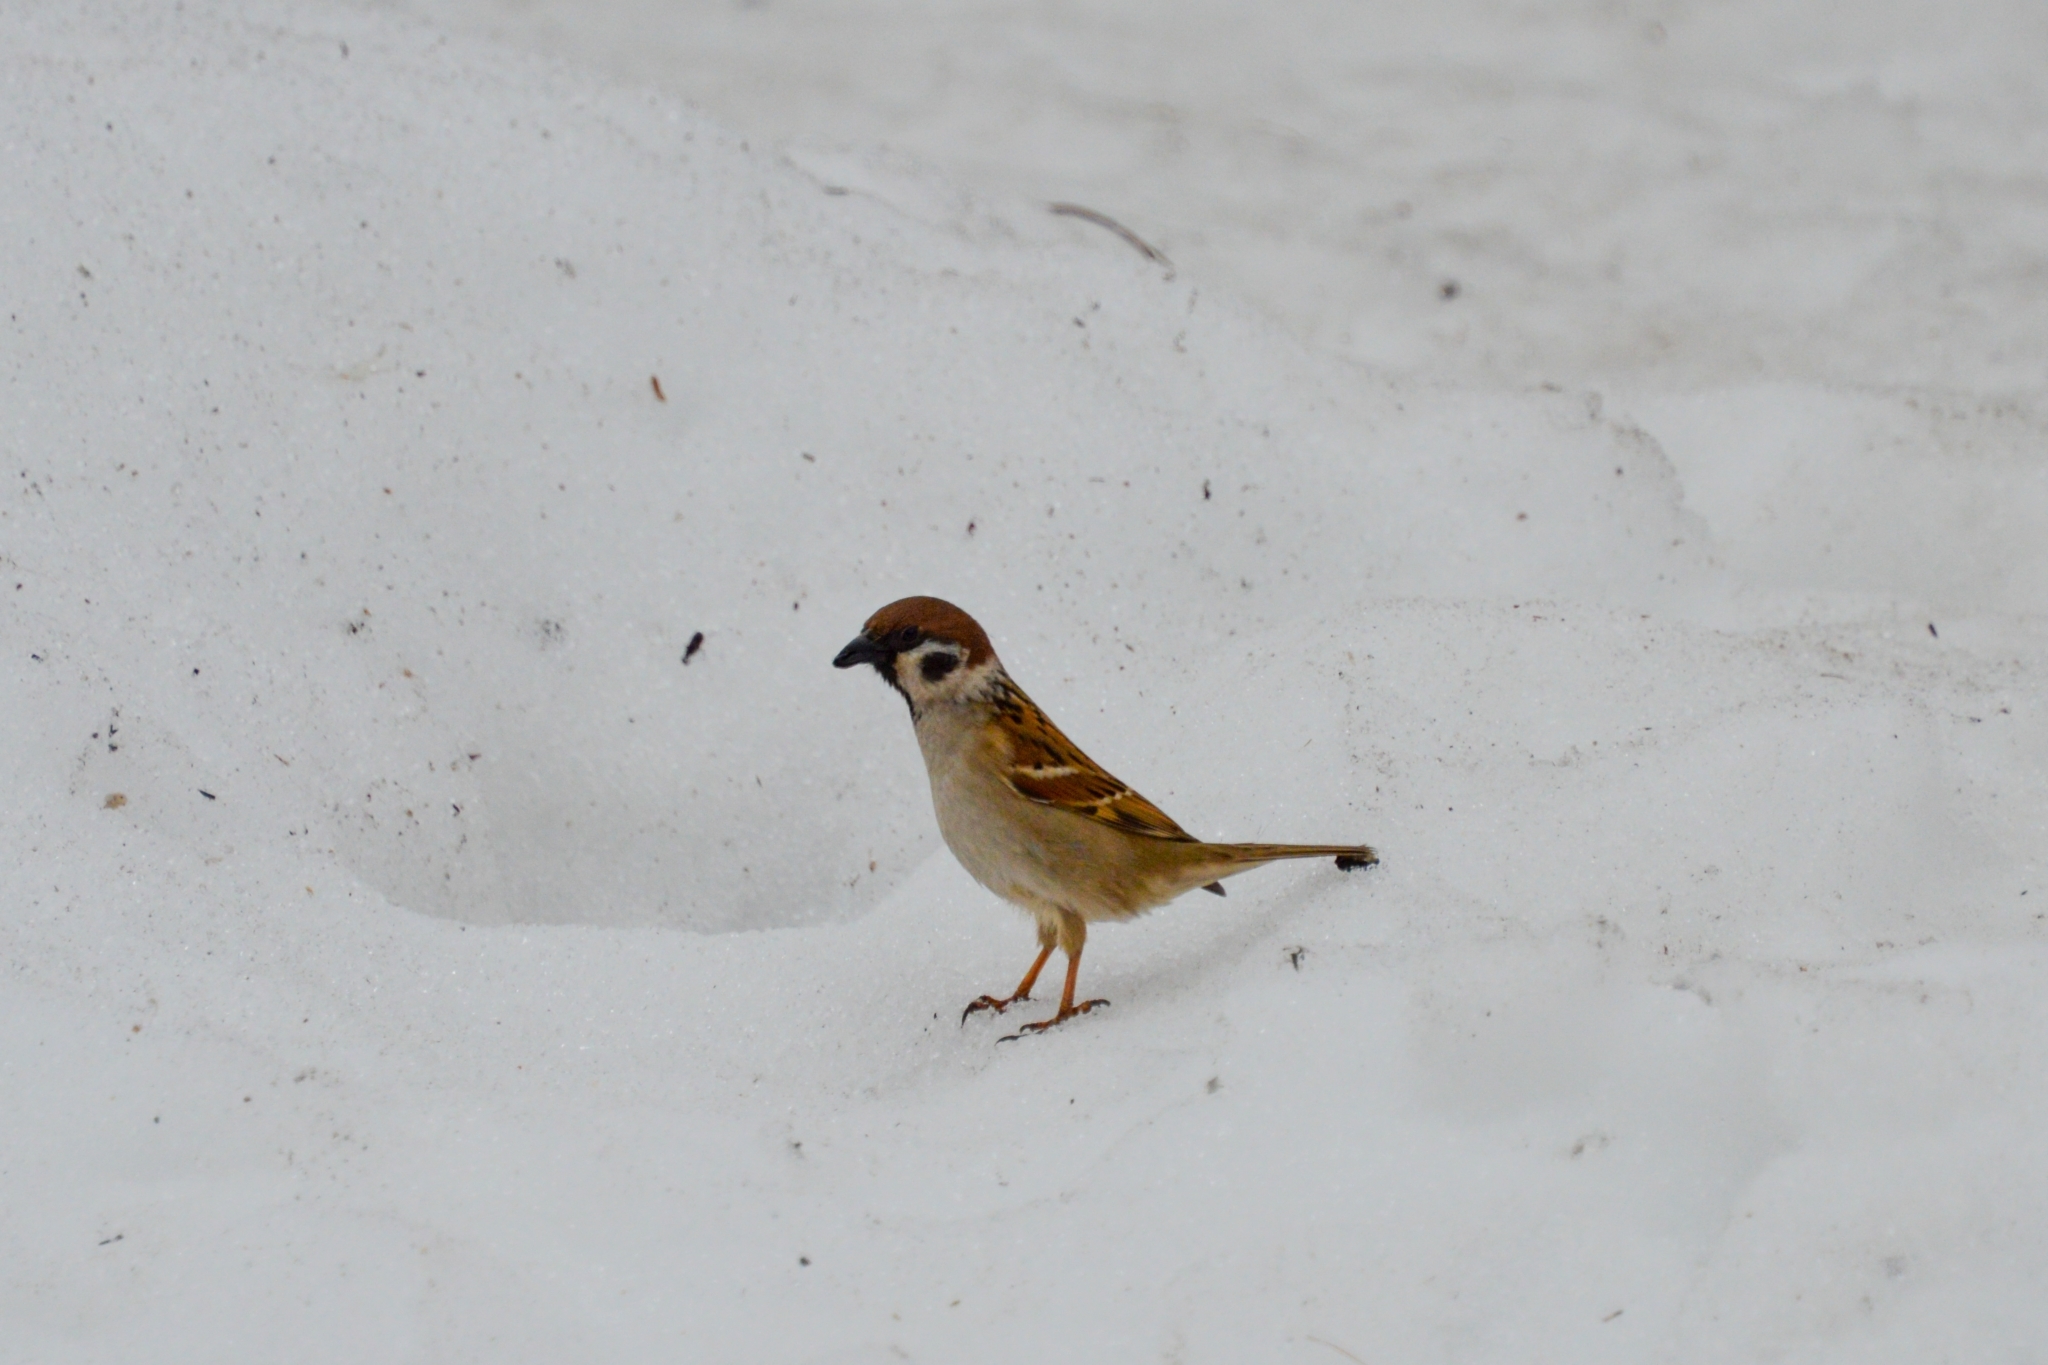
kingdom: Animalia
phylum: Chordata
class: Aves
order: Passeriformes
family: Passeridae
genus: Passer
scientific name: Passer montanus
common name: Eurasian tree sparrow
